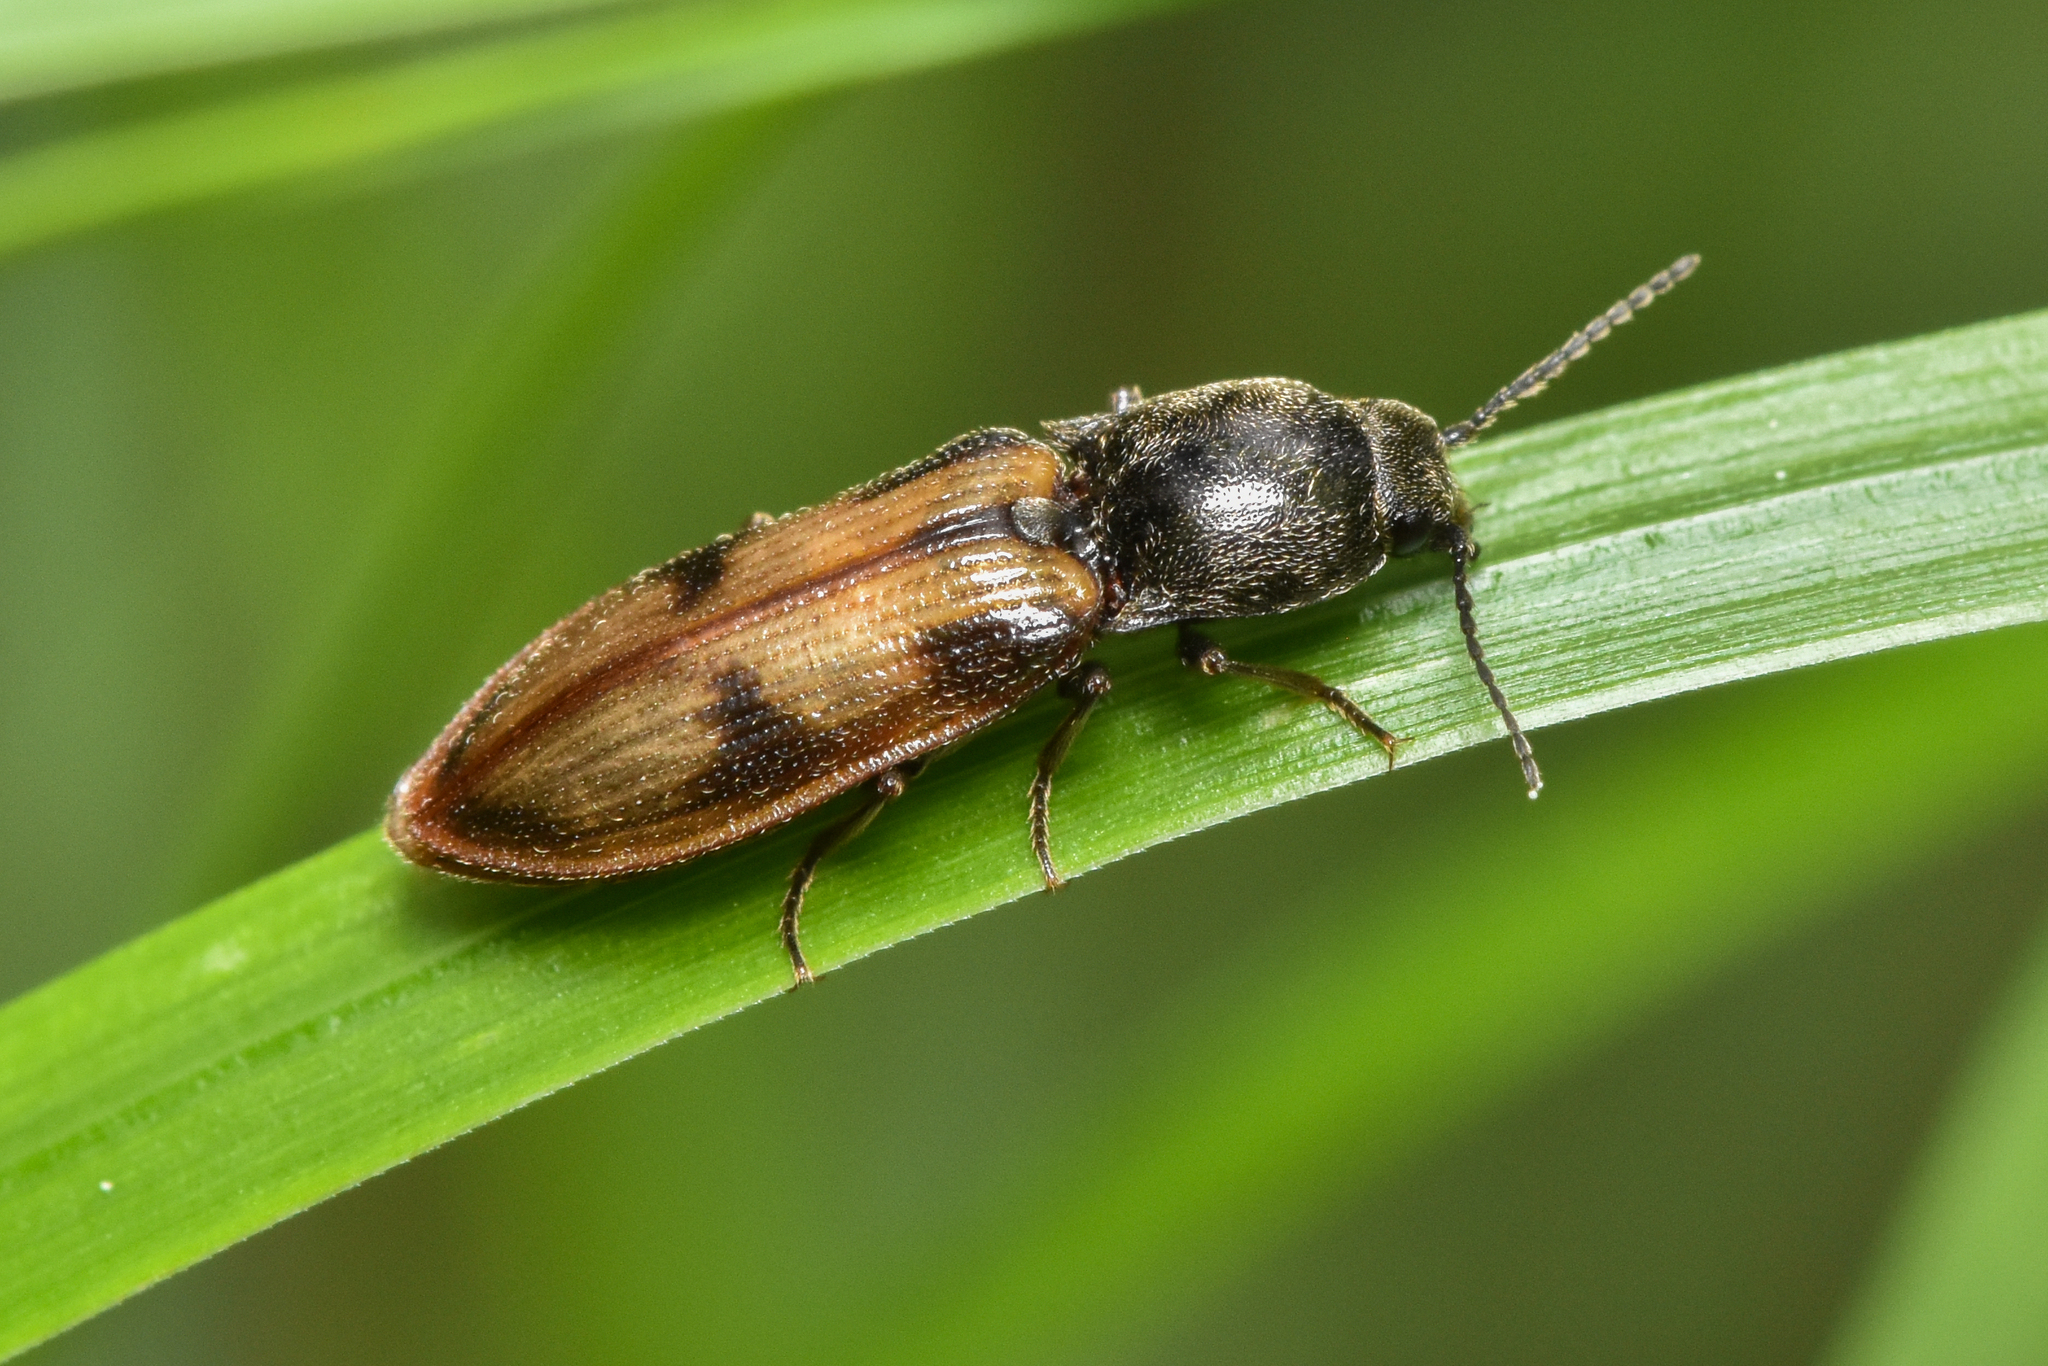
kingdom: Animalia
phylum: Arthropoda
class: Insecta
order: Coleoptera
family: Elateridae
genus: Liotrichus
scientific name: Liotrichus umbripennis
